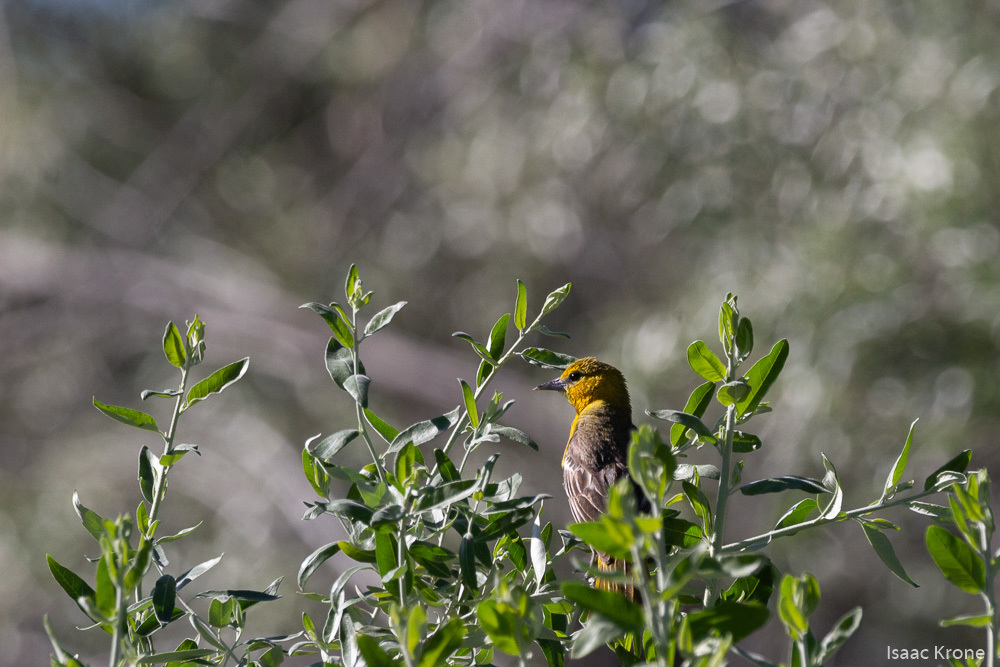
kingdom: Animalia
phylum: Chordata
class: Aves
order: Passeriformes
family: Icteridae
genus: Icterus
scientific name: Icterus bullockii
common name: Bullock's oriole
